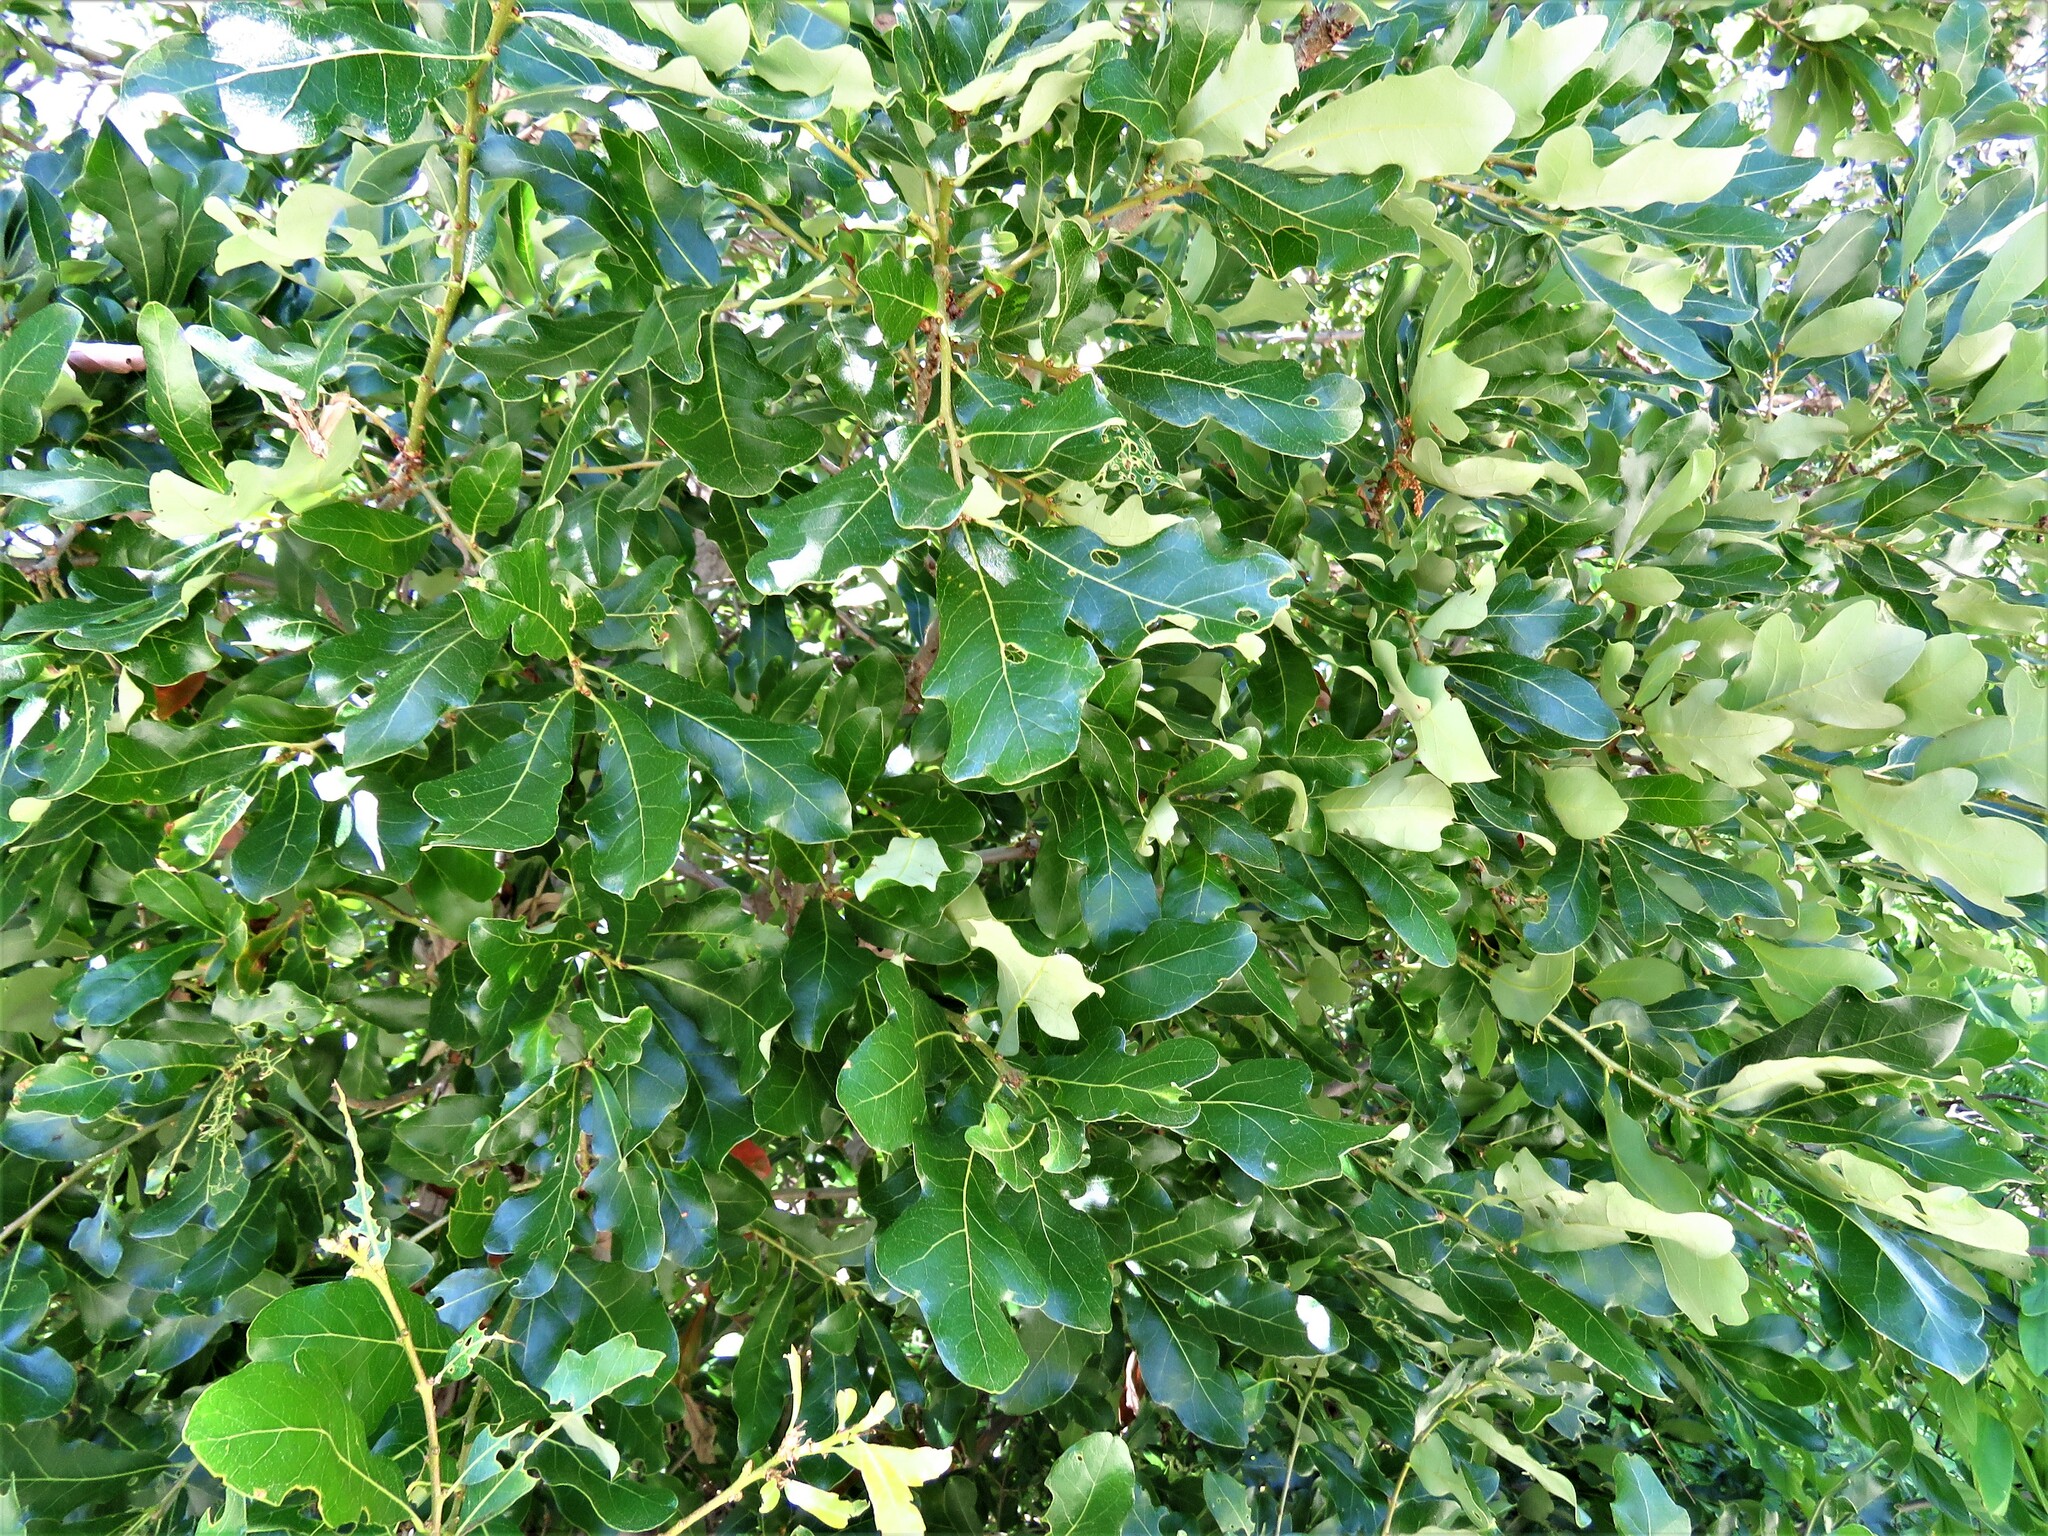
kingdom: Plantae
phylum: Tracheophyta
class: Magnoliopsida
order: Fagales
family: Fagaceae
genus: Quercus
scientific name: Quercus sinuata
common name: Durand oak
